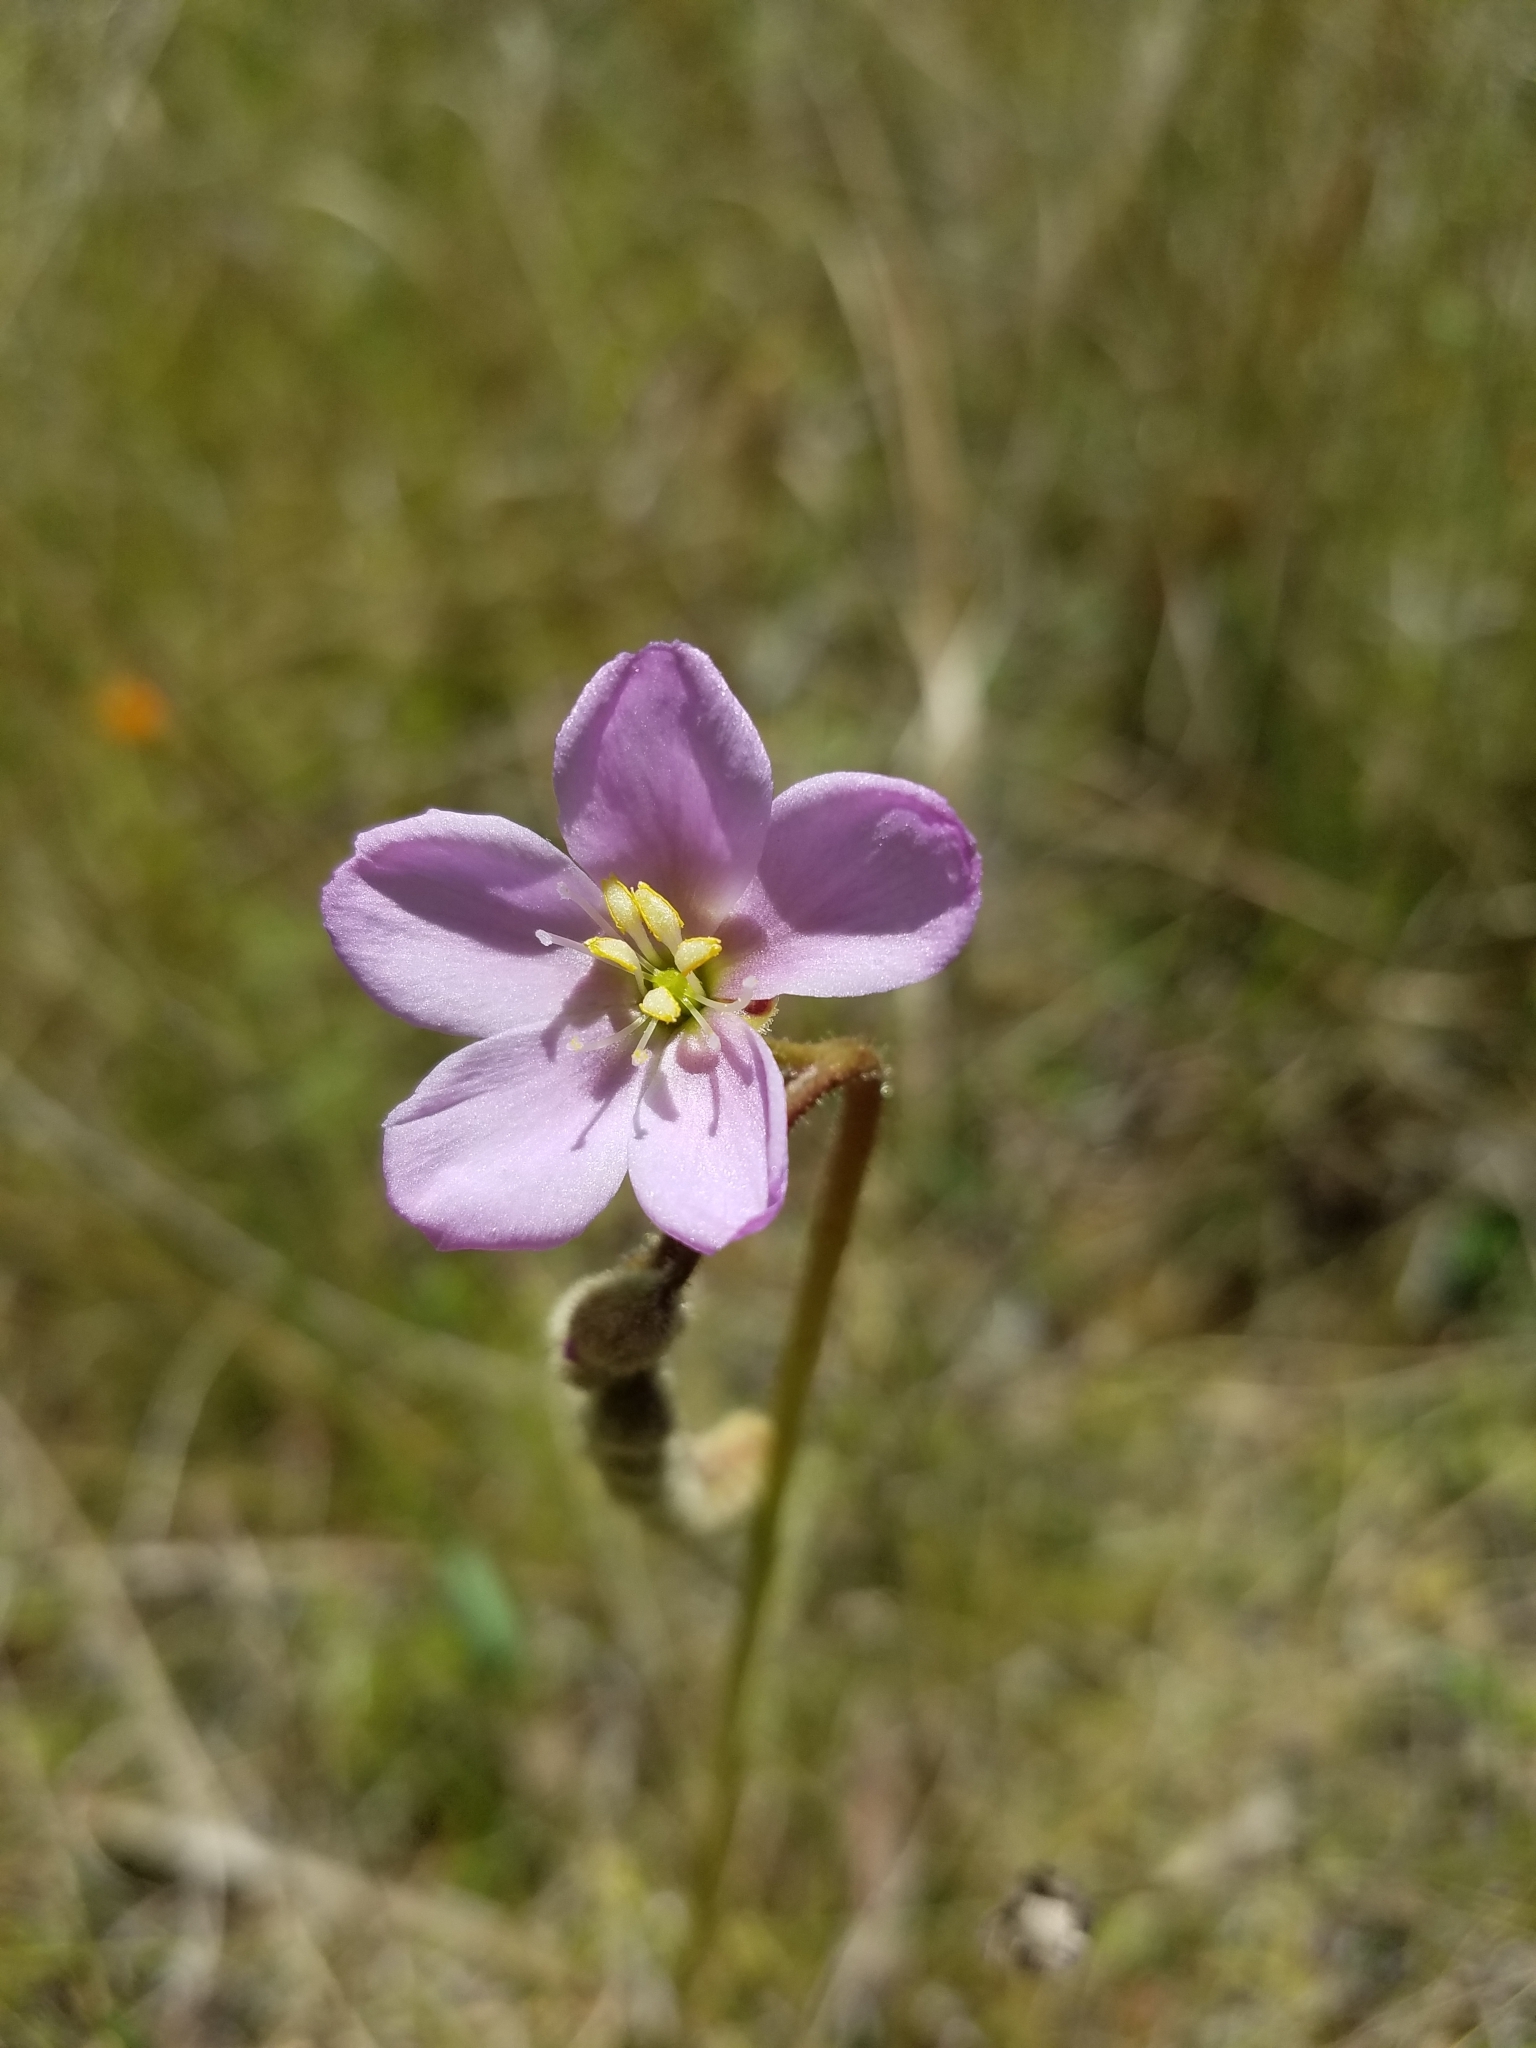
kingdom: Plantae
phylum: Tracheophyta
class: Magnoliopsida
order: Caryophyllales
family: Droseraceae
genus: Drosera
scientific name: Drosera filiformis
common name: Dew-thread
